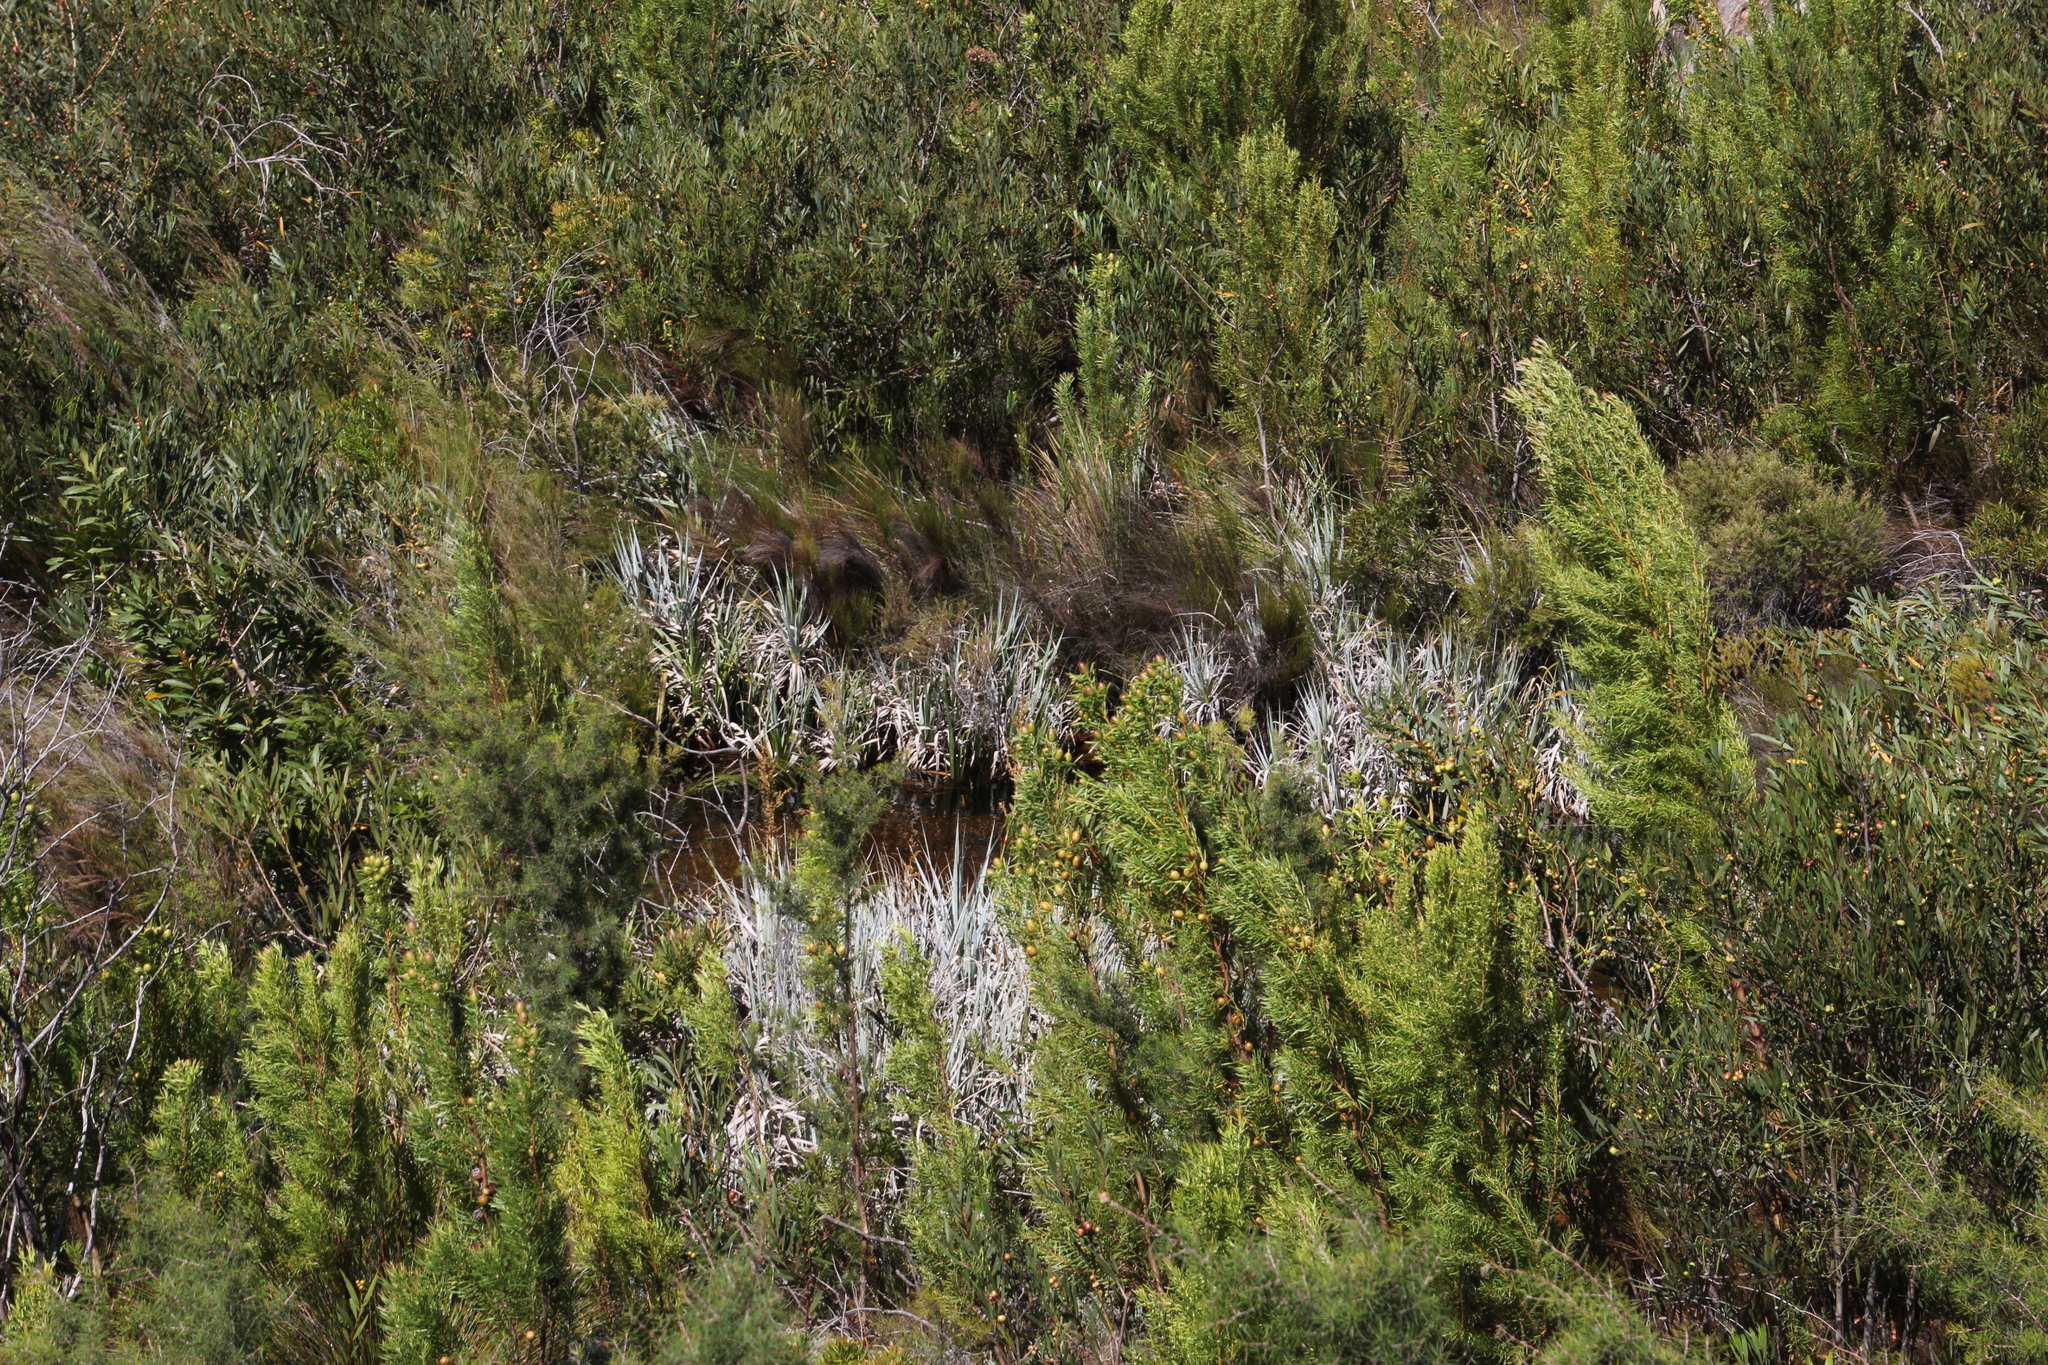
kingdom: Plantae
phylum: Tracheophyta
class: Magnoliopsida
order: Proteales
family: Proteaceae
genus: Leucadendron
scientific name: Leucadendron salicifolium
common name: Common stream conebush
